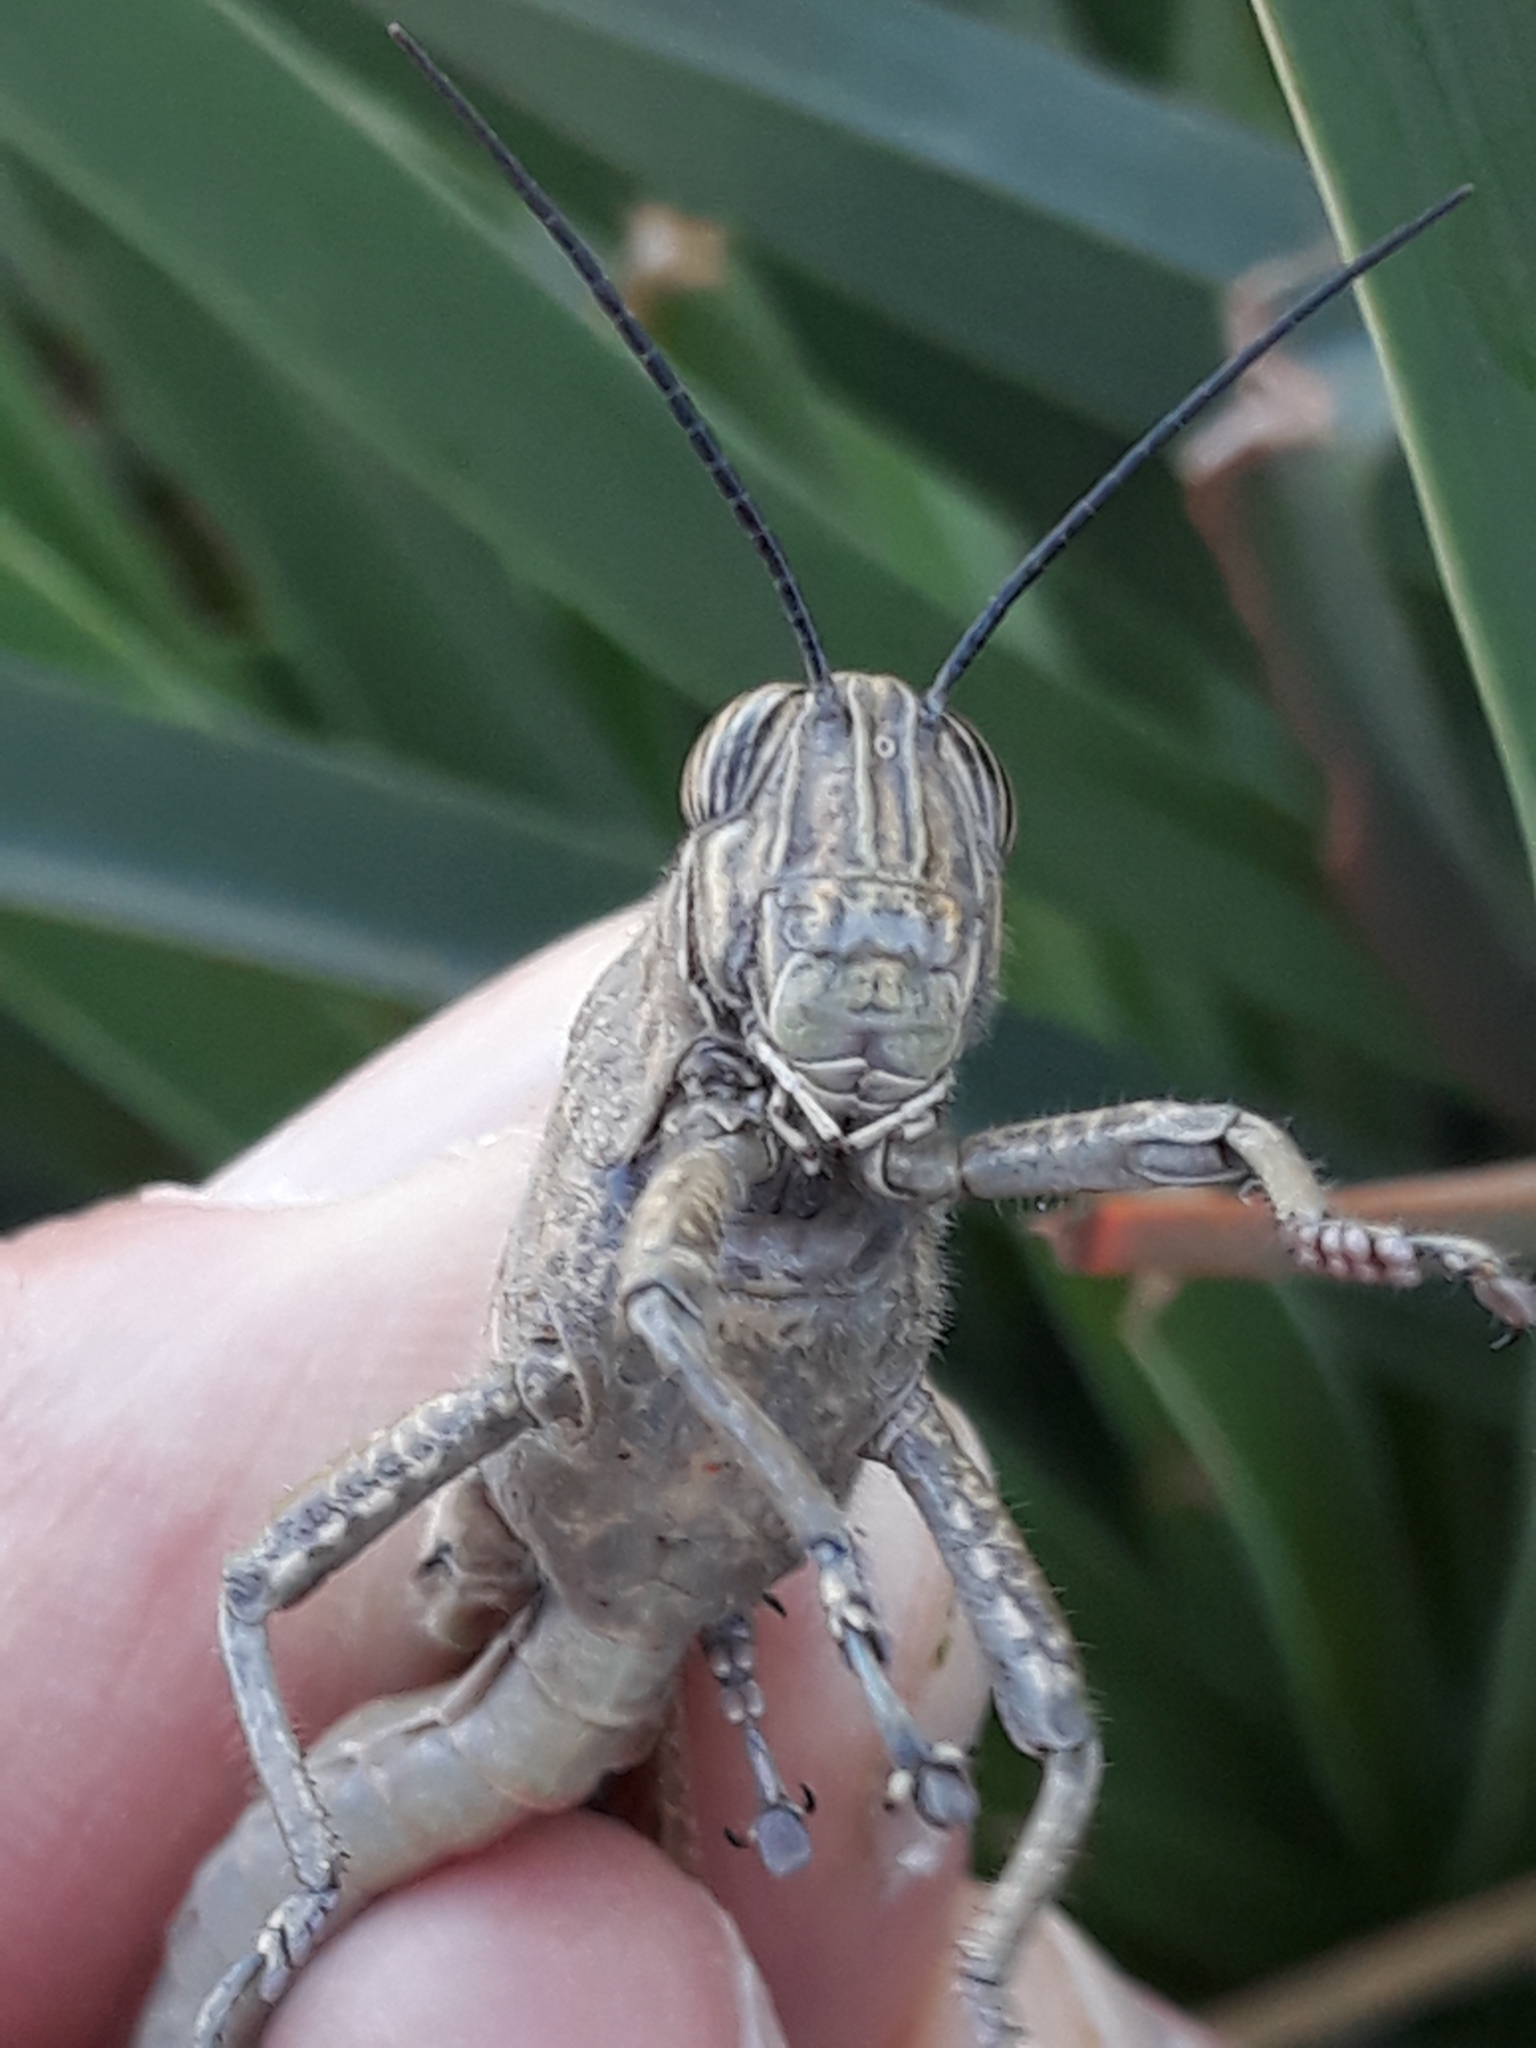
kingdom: Animalia
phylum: Arthropoda
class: Insecta
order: Orthoptera
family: Acrididae
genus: Anacridium
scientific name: Anacridium aegyptium
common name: Egyptian grasshopper
